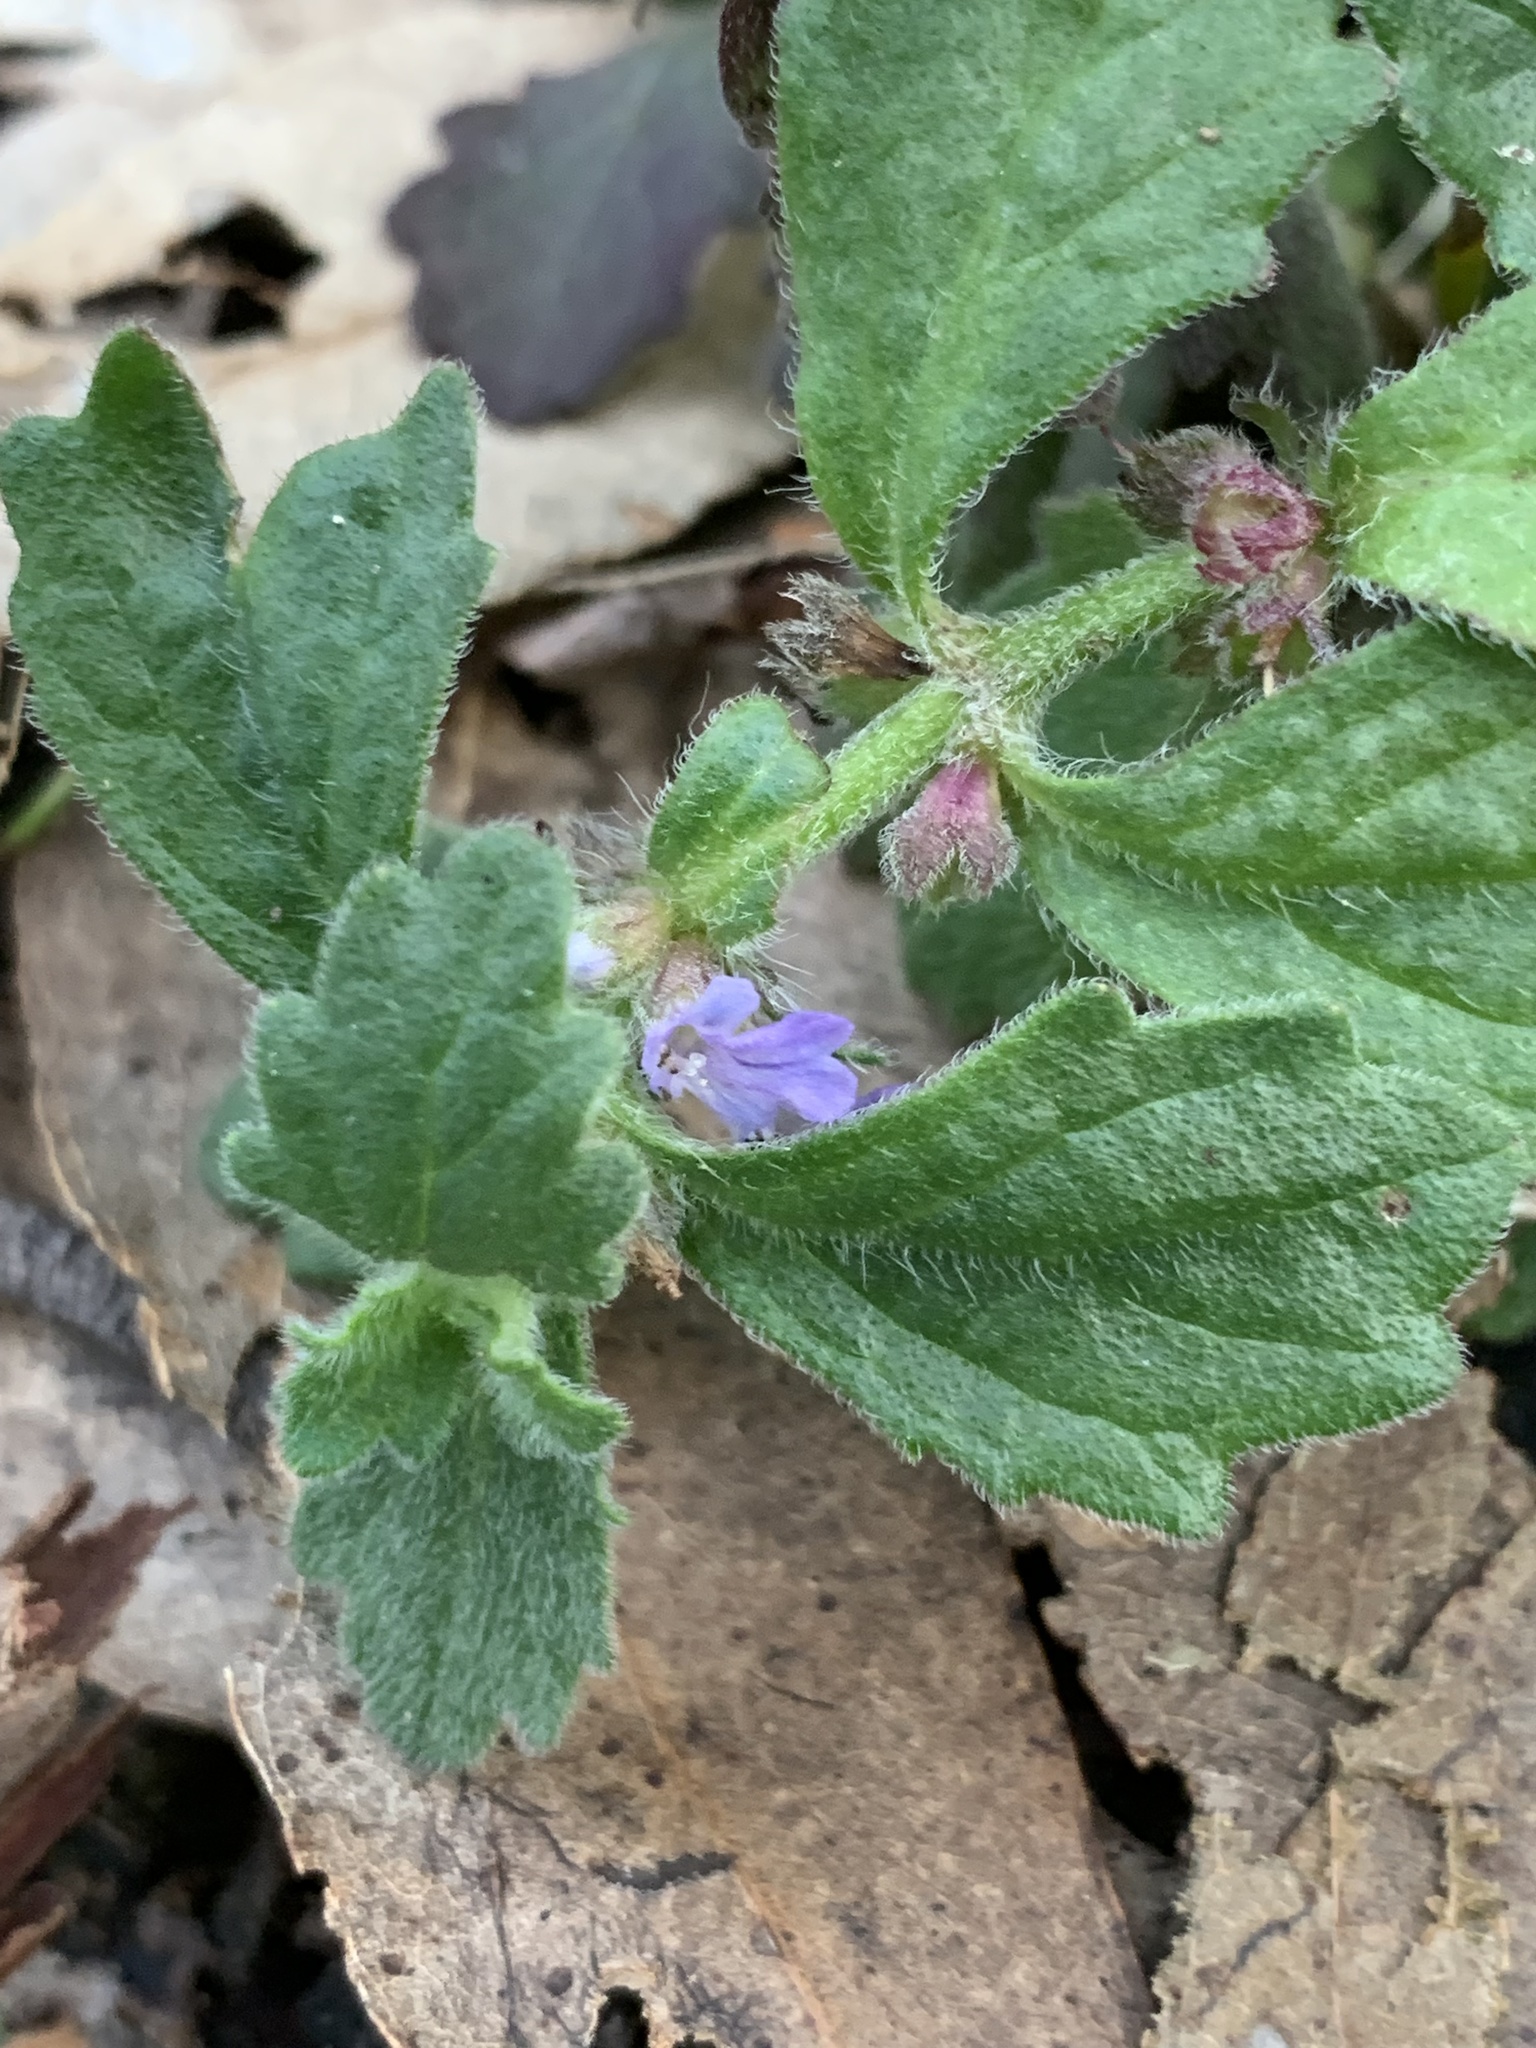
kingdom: Plantae
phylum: Tracheophyta
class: Magnoliopsida
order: Lamiales
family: Lamiaceae
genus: Ajuga
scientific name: Ajuga australis
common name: Australian bugle
